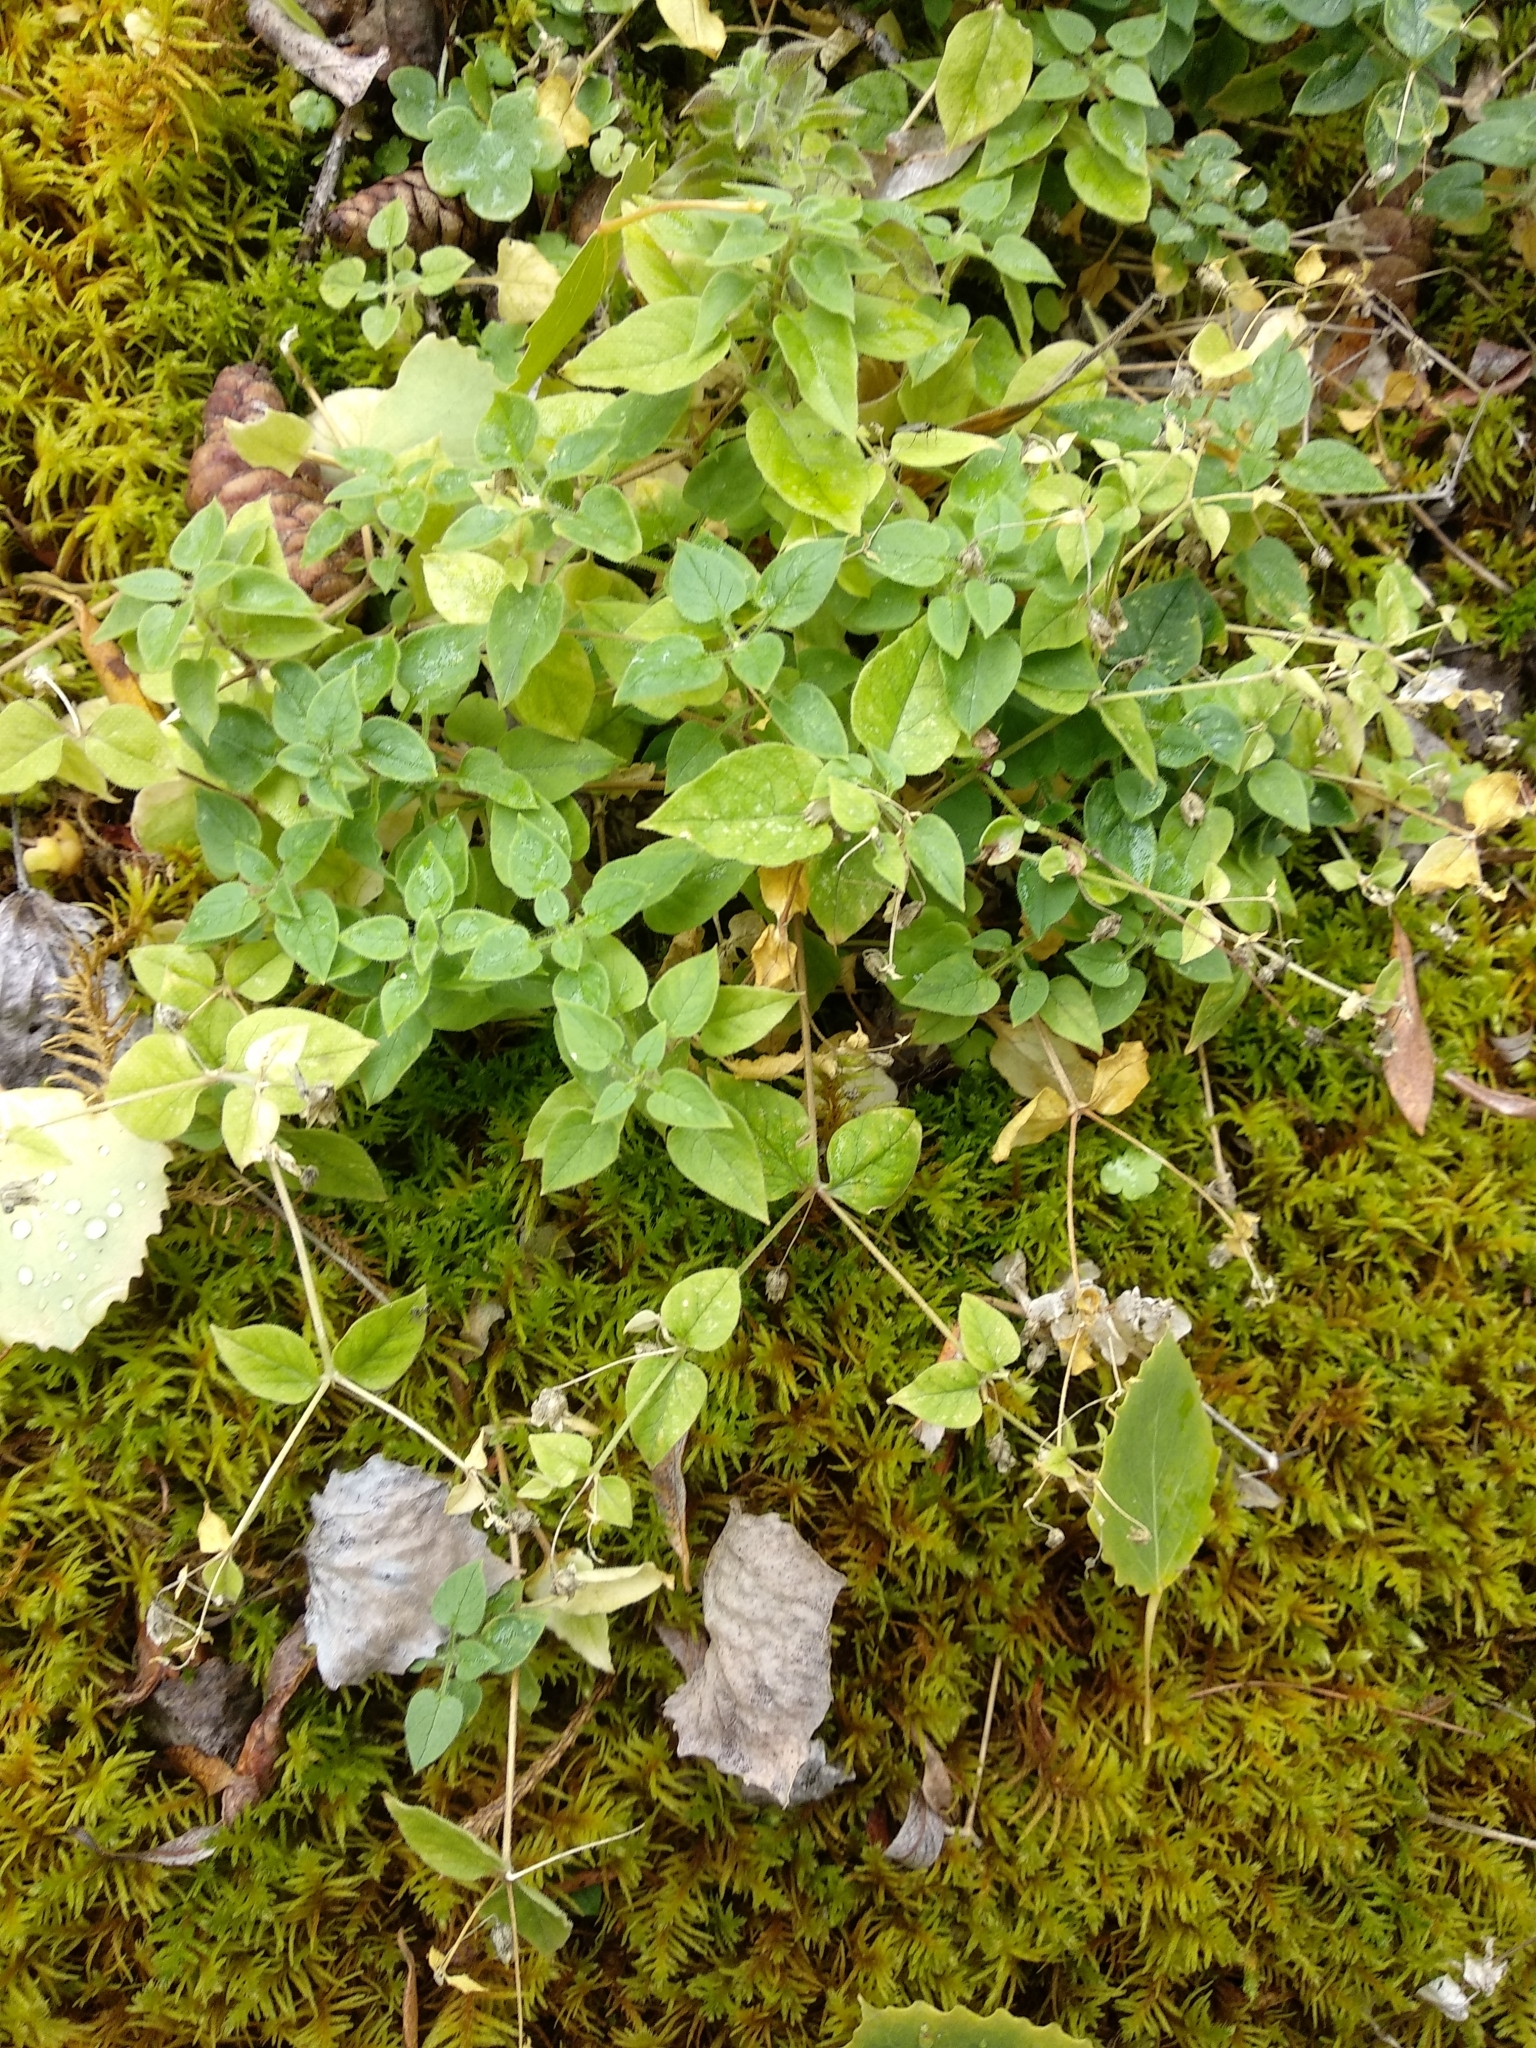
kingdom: Plantae
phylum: Tracheophyta
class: Magnoliopsida
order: Caryophyllales
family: Caryophyllaceae
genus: Stellaria
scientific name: Stellaria bungeana
